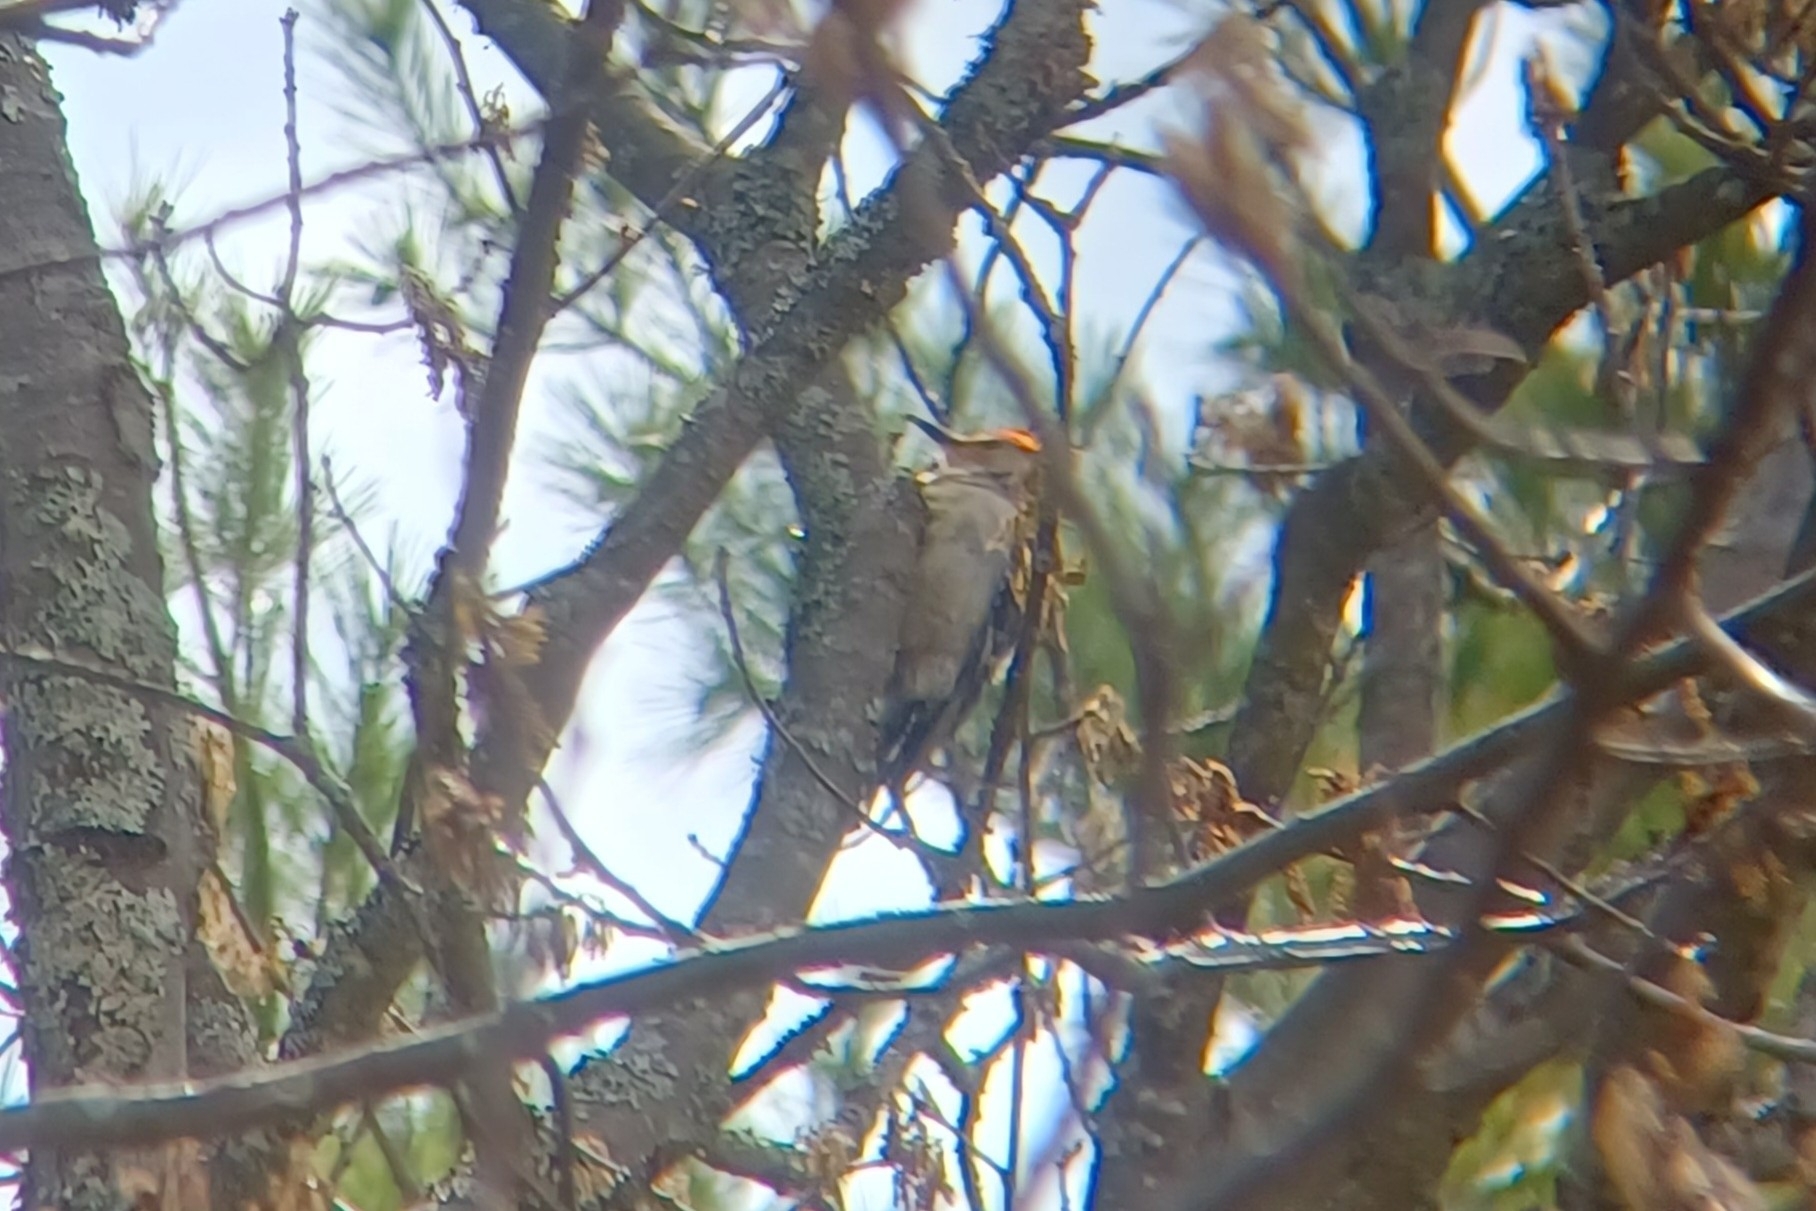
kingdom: Animalia
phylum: Chordata
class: Aves
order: Piciformes
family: Picidae
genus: Melanerpes
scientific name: Melanerpes carolinus
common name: Red-bellied woodpecker
